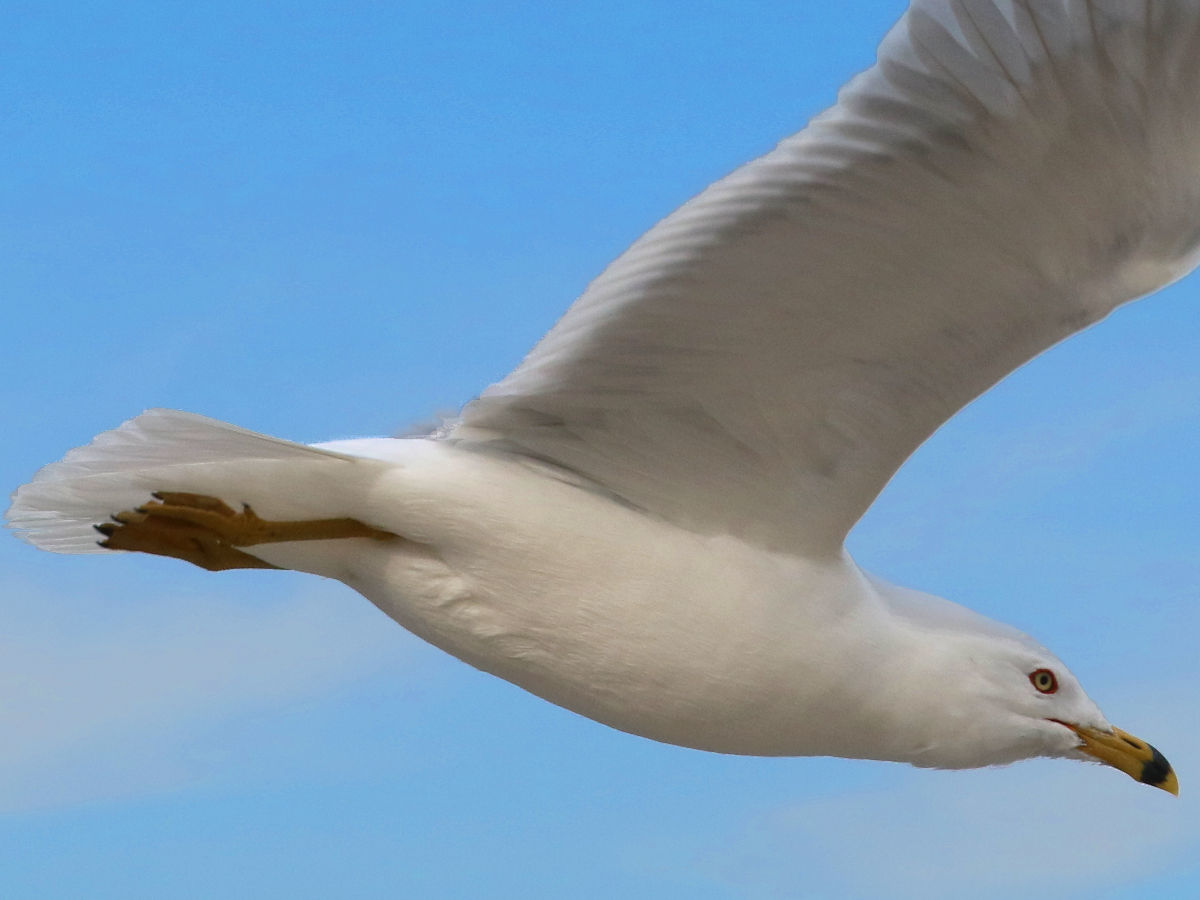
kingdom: Animalia
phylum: Chordata
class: Aves
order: Charadriiformes
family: Laridae
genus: Larus
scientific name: Larus delawarensis
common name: Ring-billed gull
